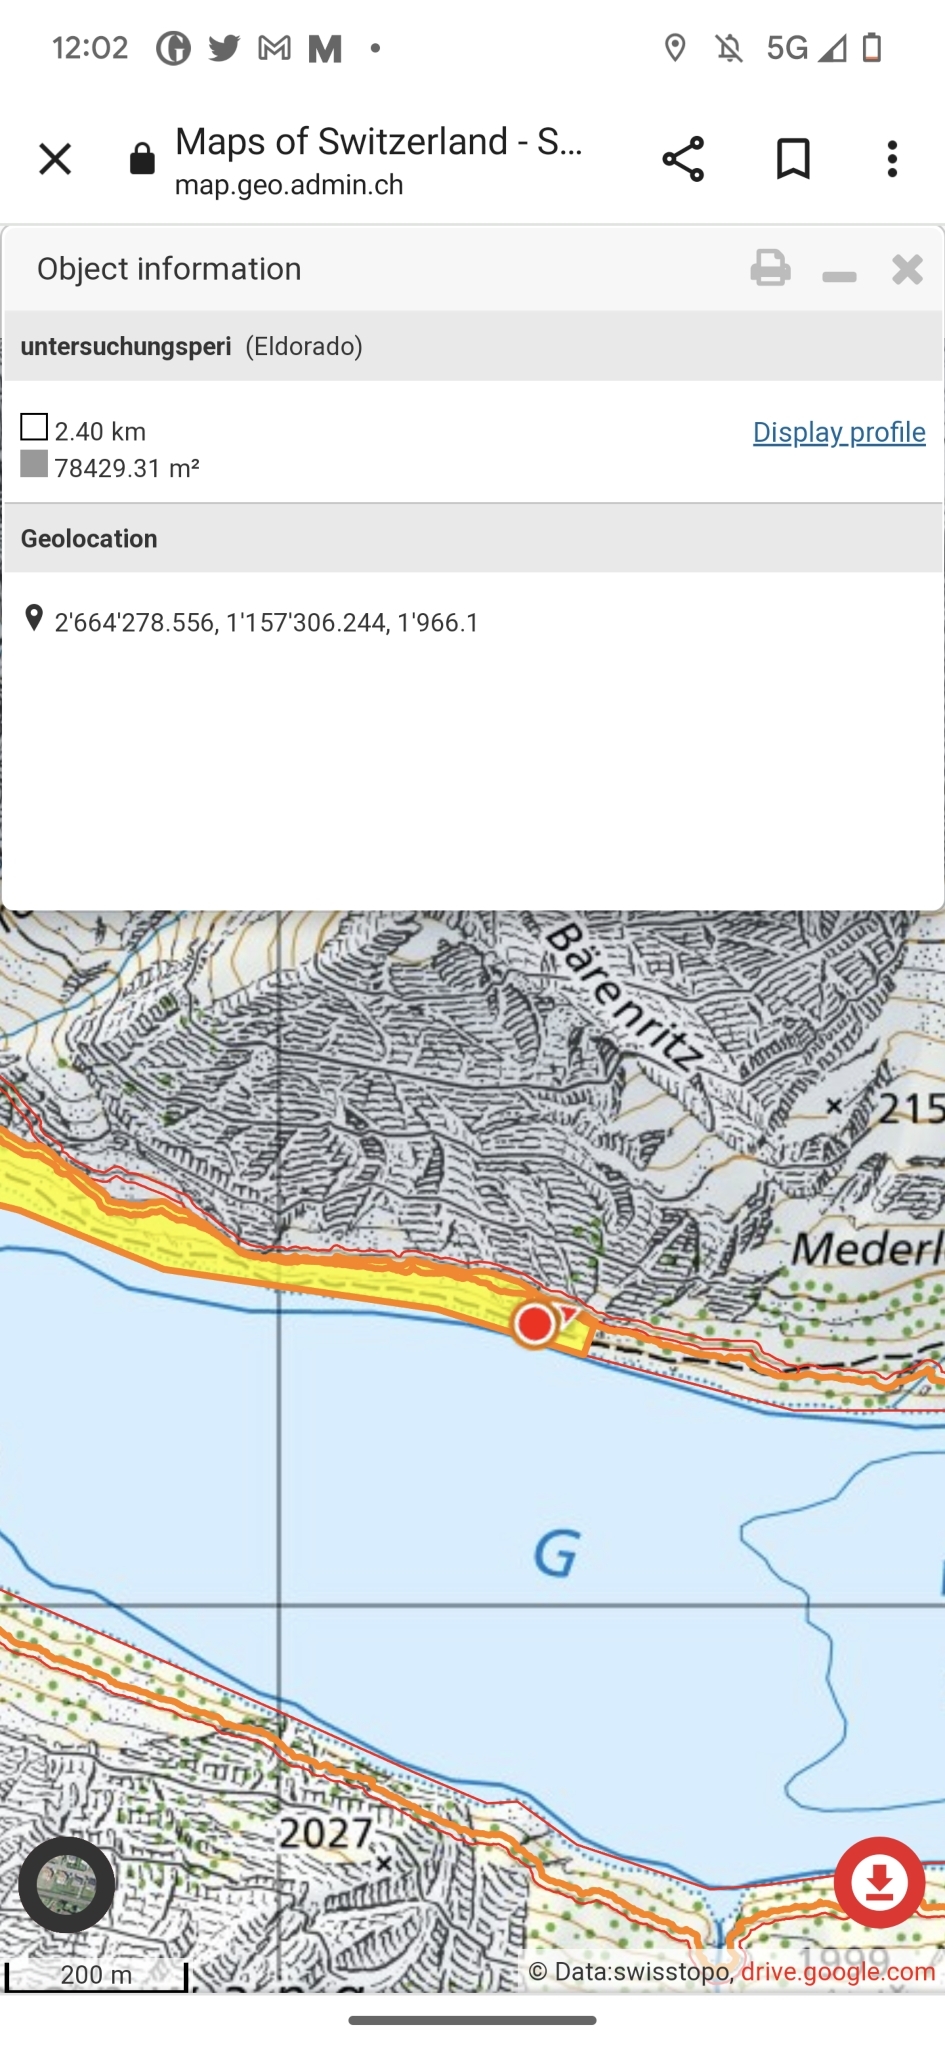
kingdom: Animalia
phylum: Arthropoda
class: Insecta
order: Hymenoptera
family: Formicidae
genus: Formica
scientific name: Formica
